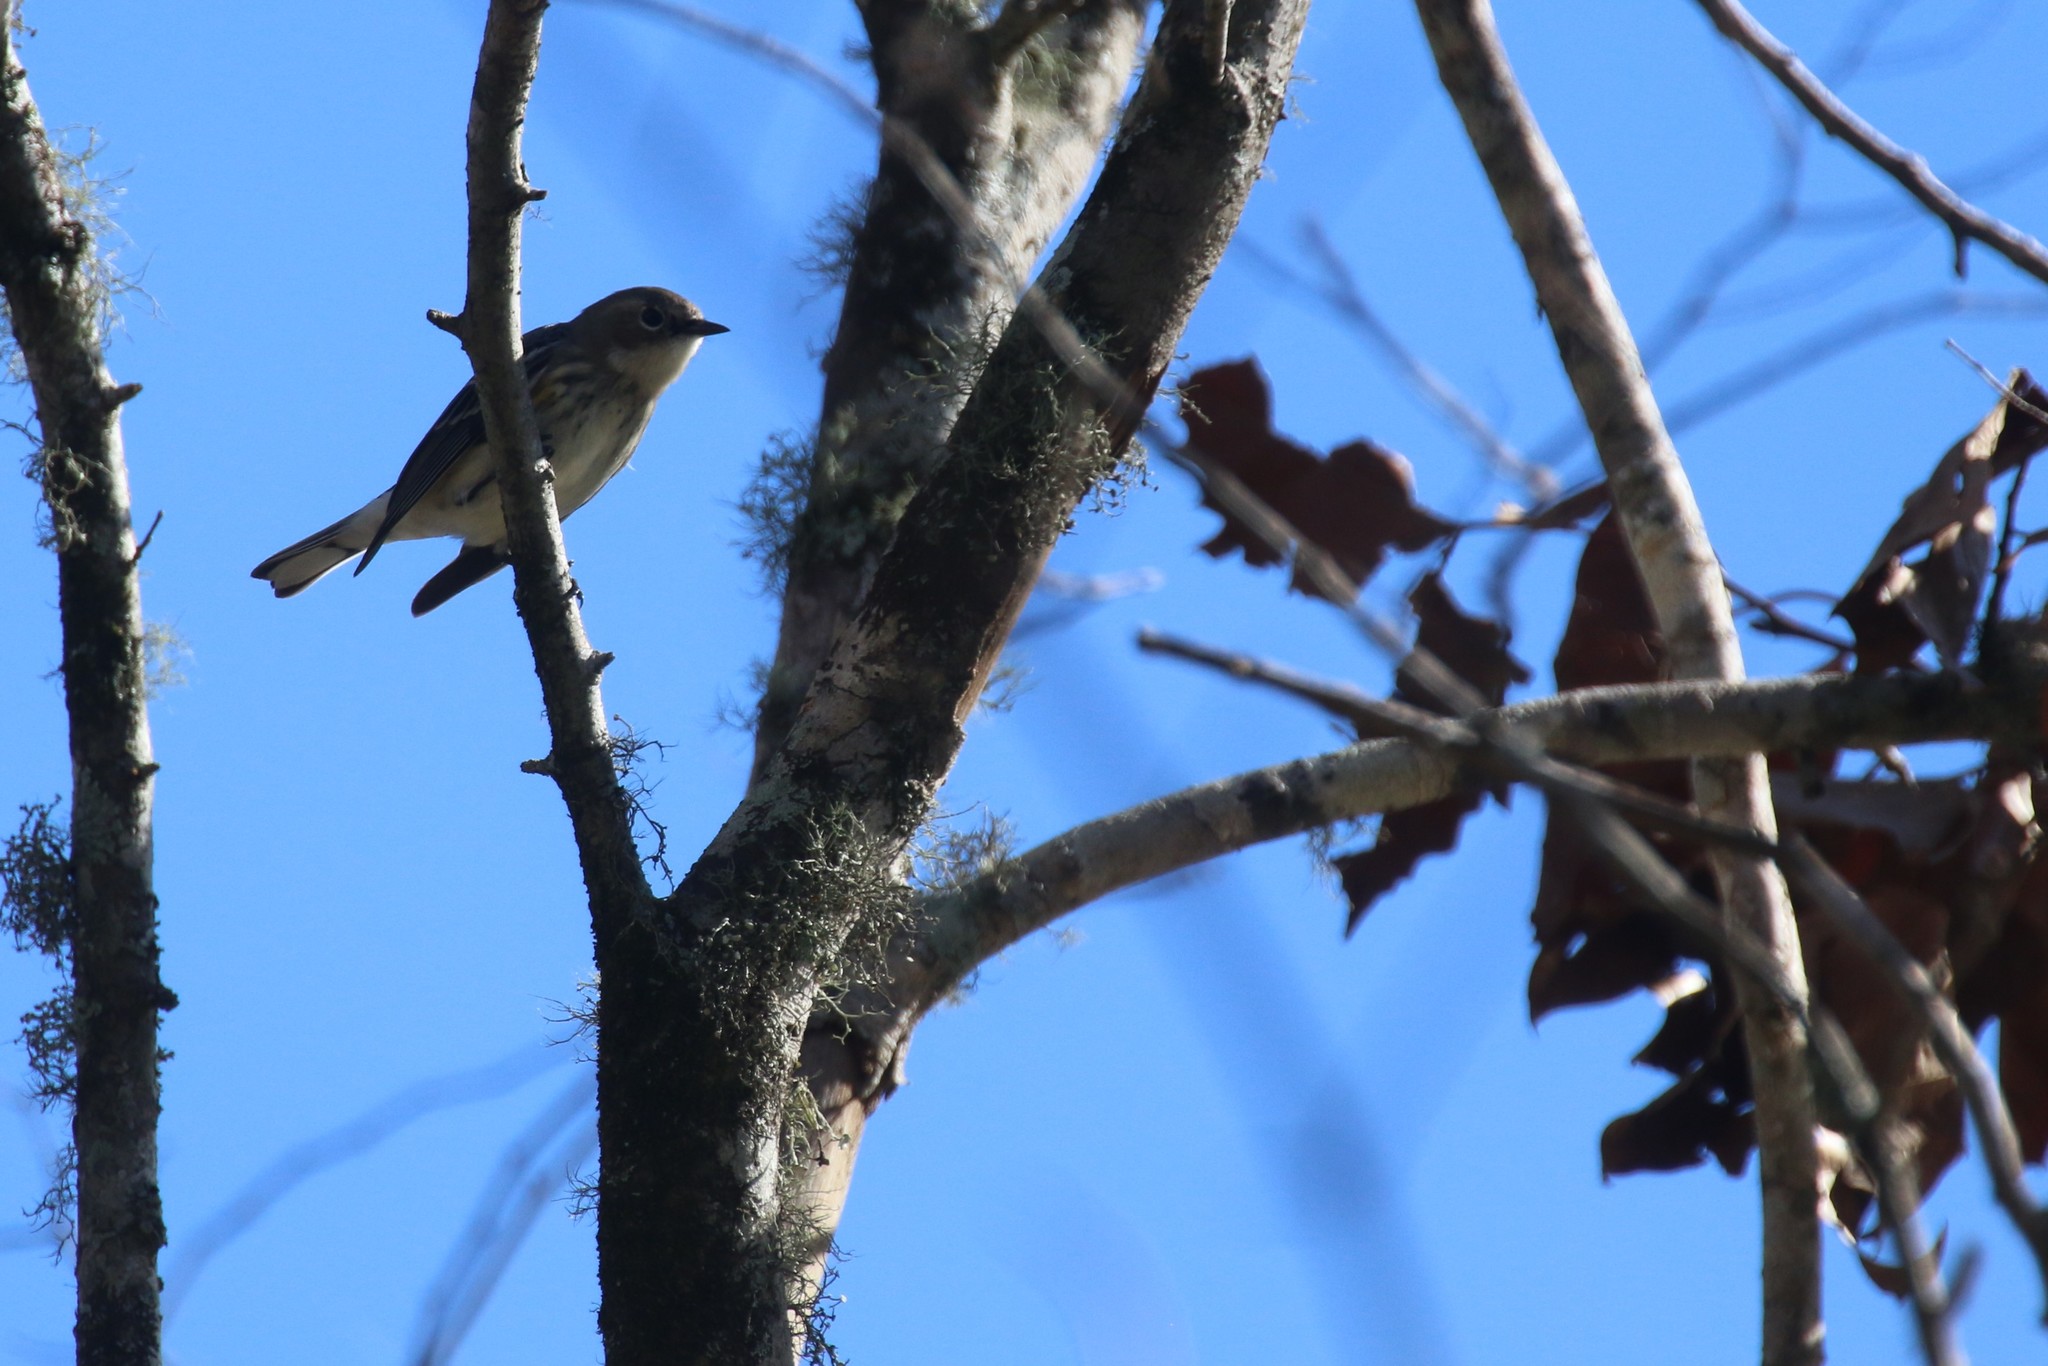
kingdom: Animalia
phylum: Chordata
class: Aves
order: Passeriformes
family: Parulidae
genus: Setophaga
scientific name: Setophaga coronata
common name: Myrtle warbler
